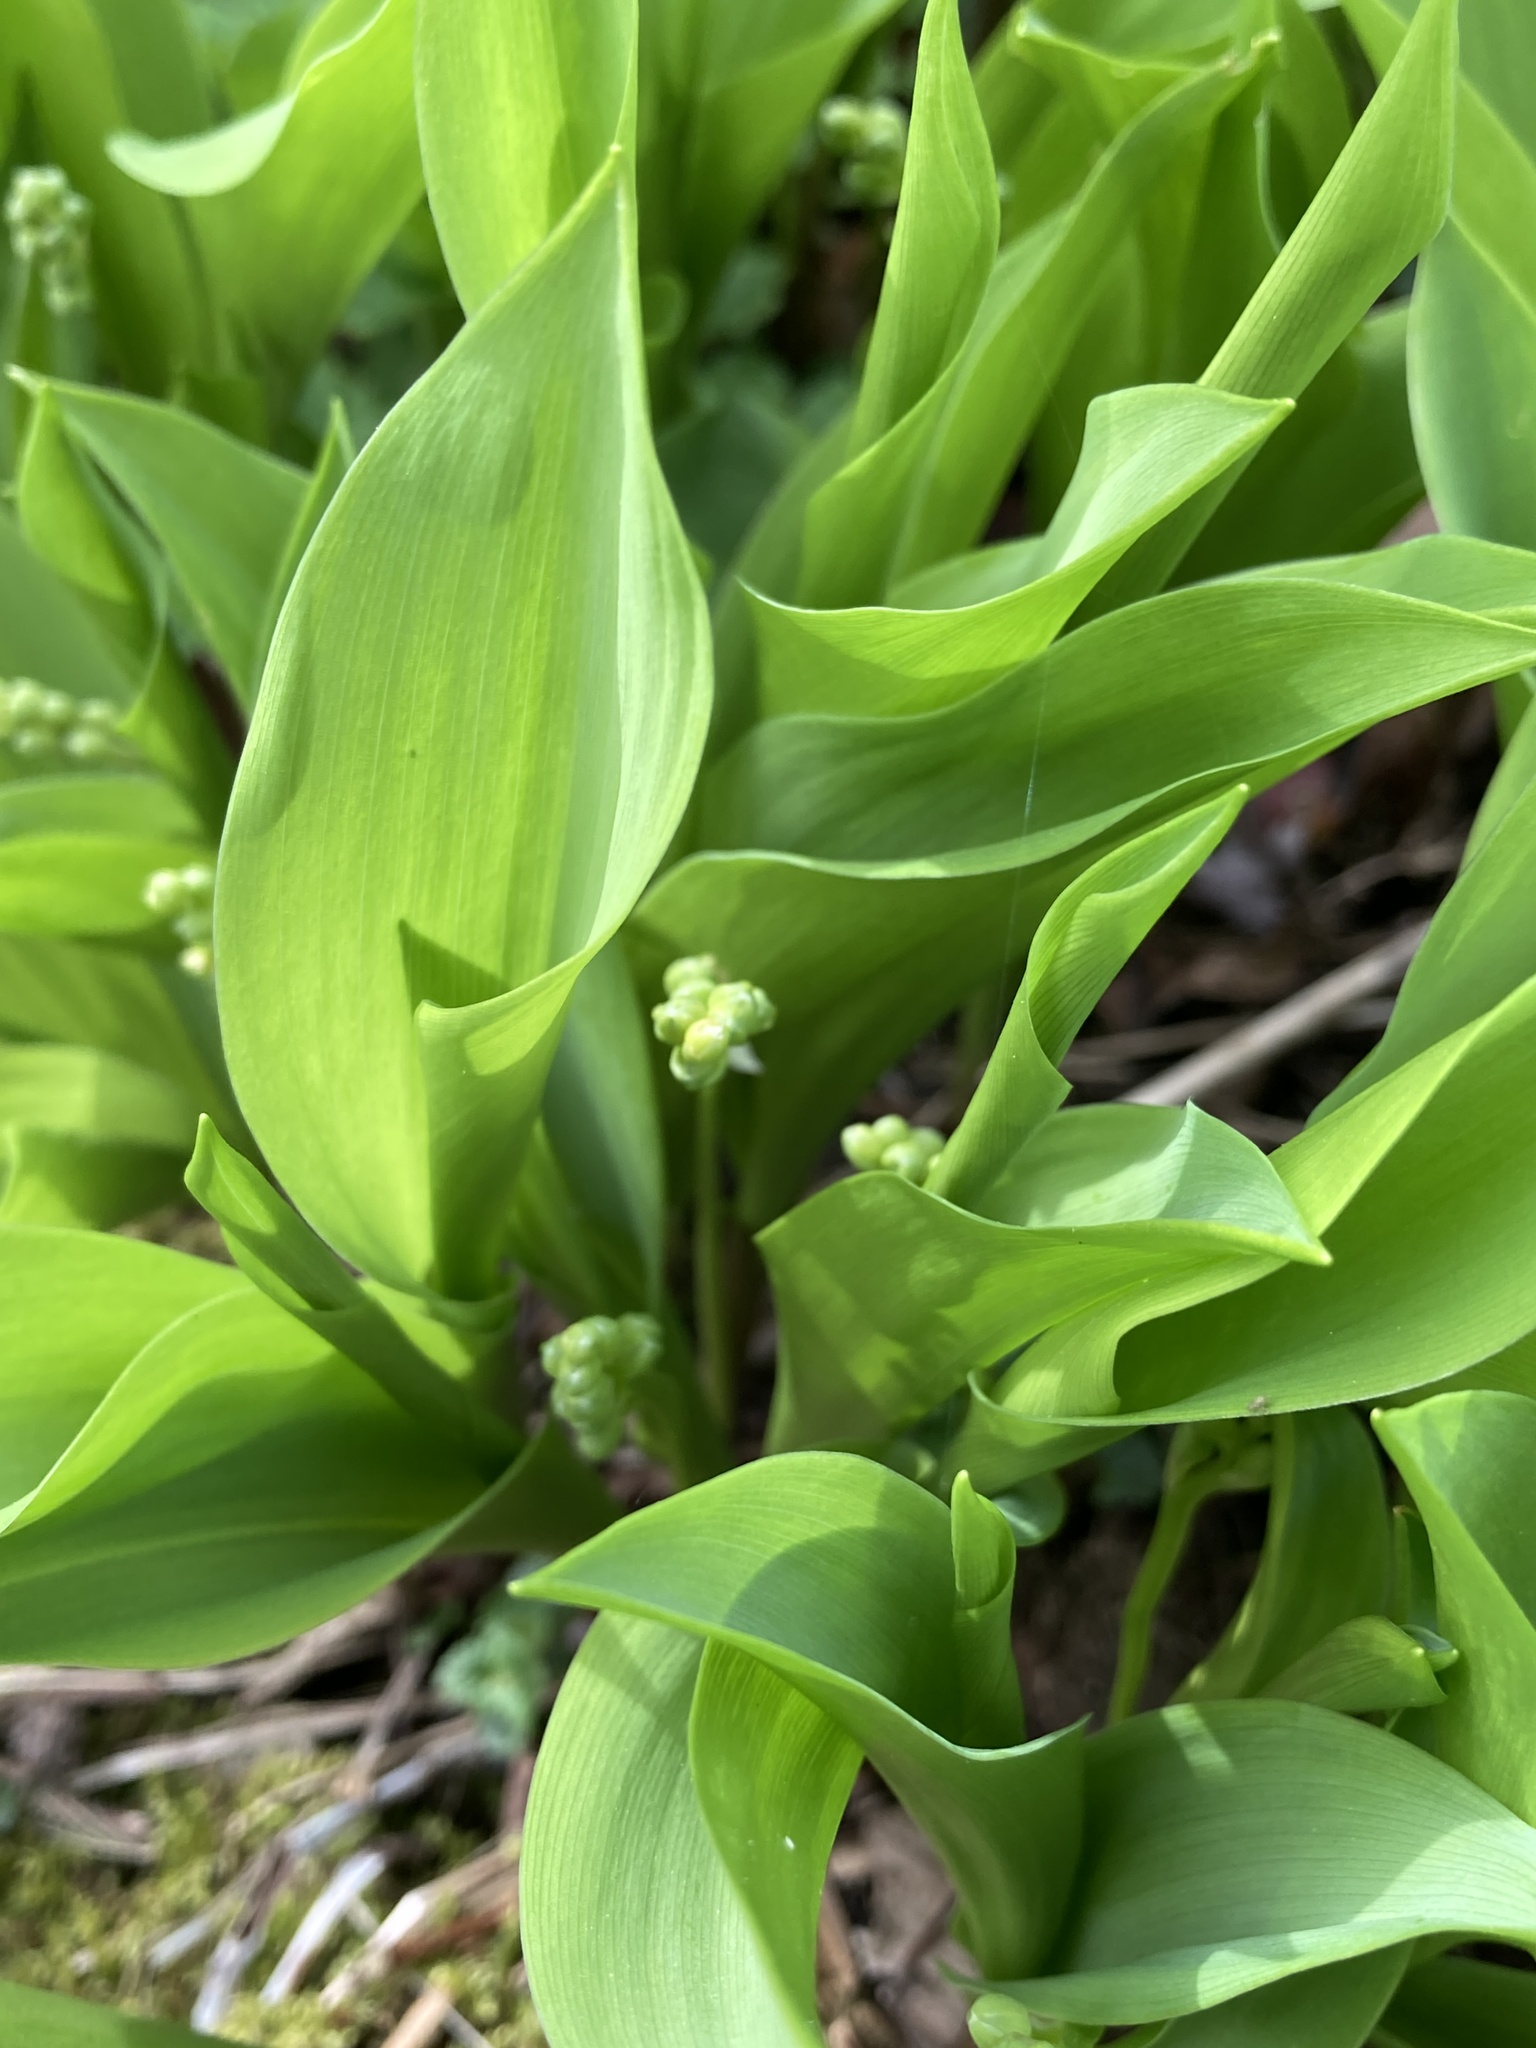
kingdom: Plantae
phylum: Tracheophyta
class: Liliopsida
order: Asparagales
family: Asparagaceae
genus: Convallaria
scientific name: Convallaria majalis
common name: Lily-of-the-valley
